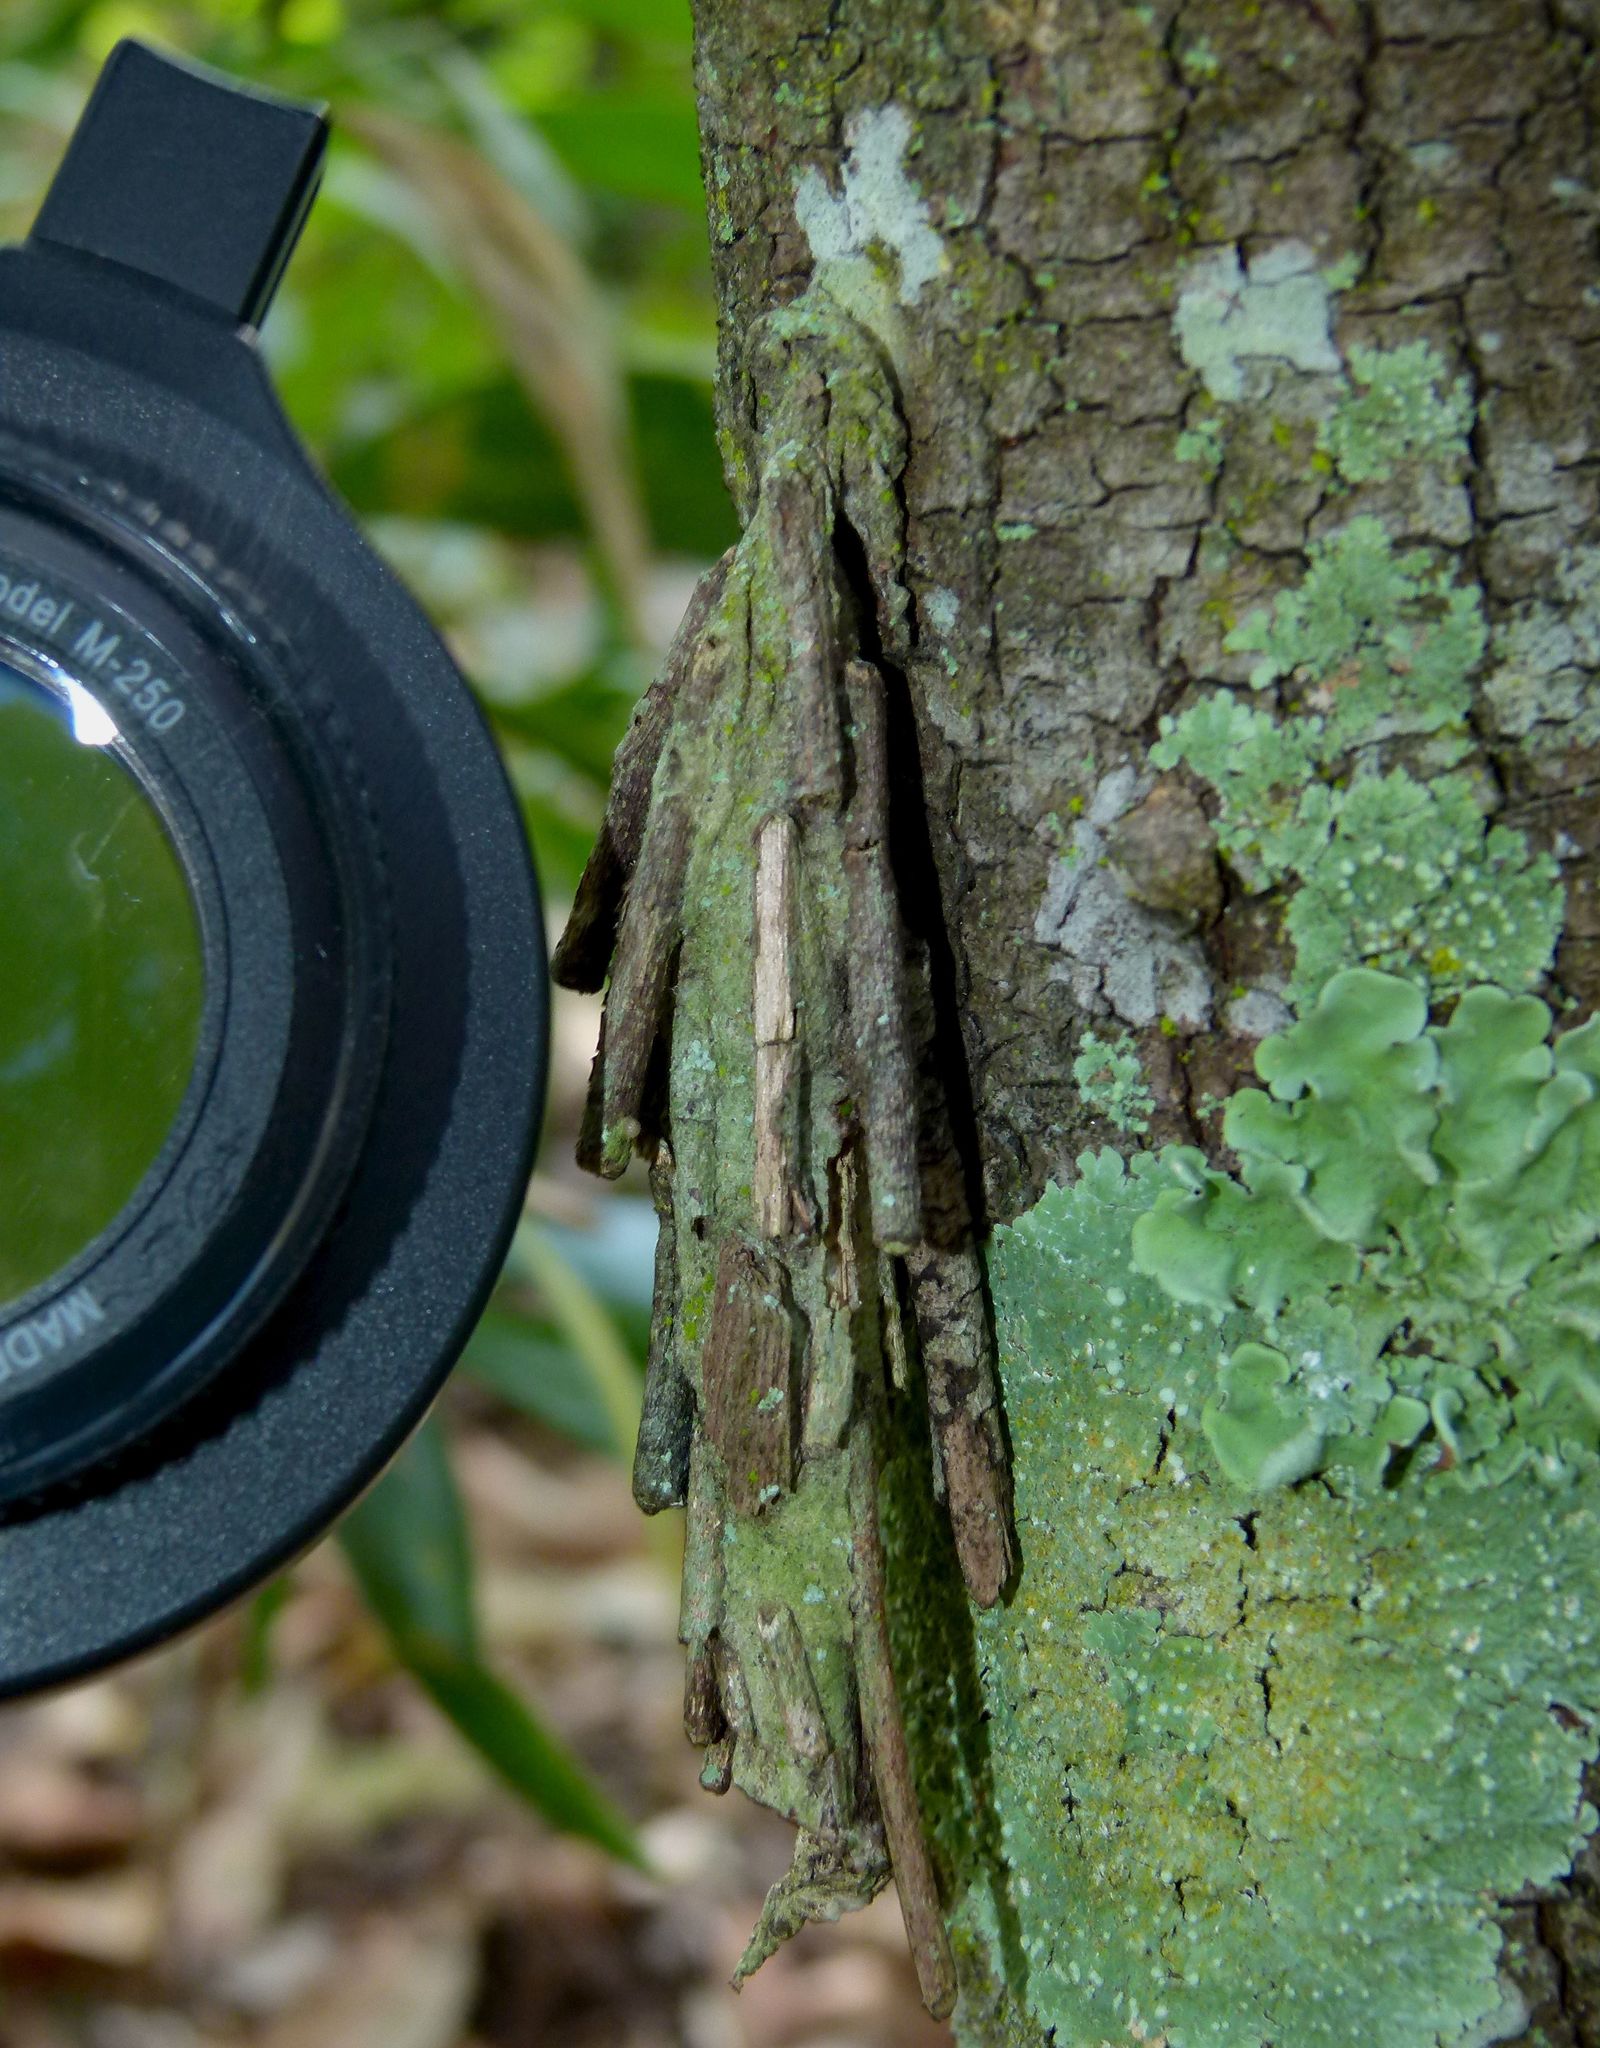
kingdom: Animalia
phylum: Arthropoda
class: Insecta
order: Lepidoptera
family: Psychidae
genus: Metura
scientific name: Metura elongatus
